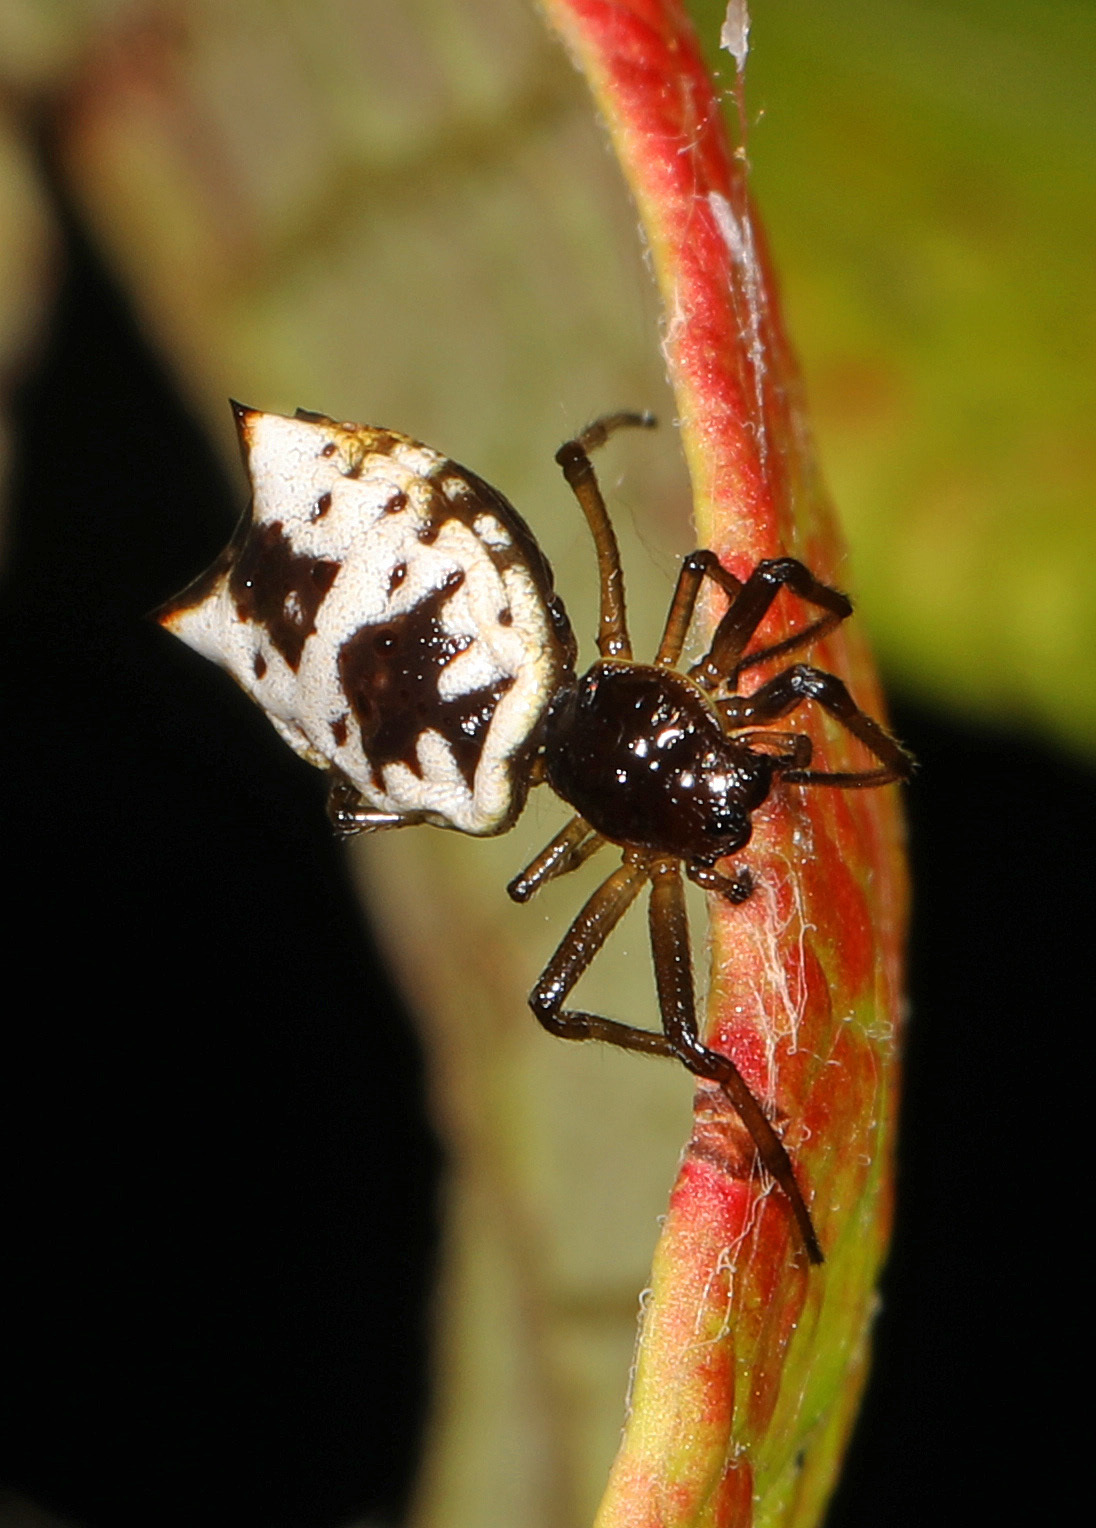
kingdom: Animalia
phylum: Arthropoda
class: Arachnida
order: Araneae
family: Araneidae
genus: Micrathena
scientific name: Micrathena mitrata
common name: Orb weavers
